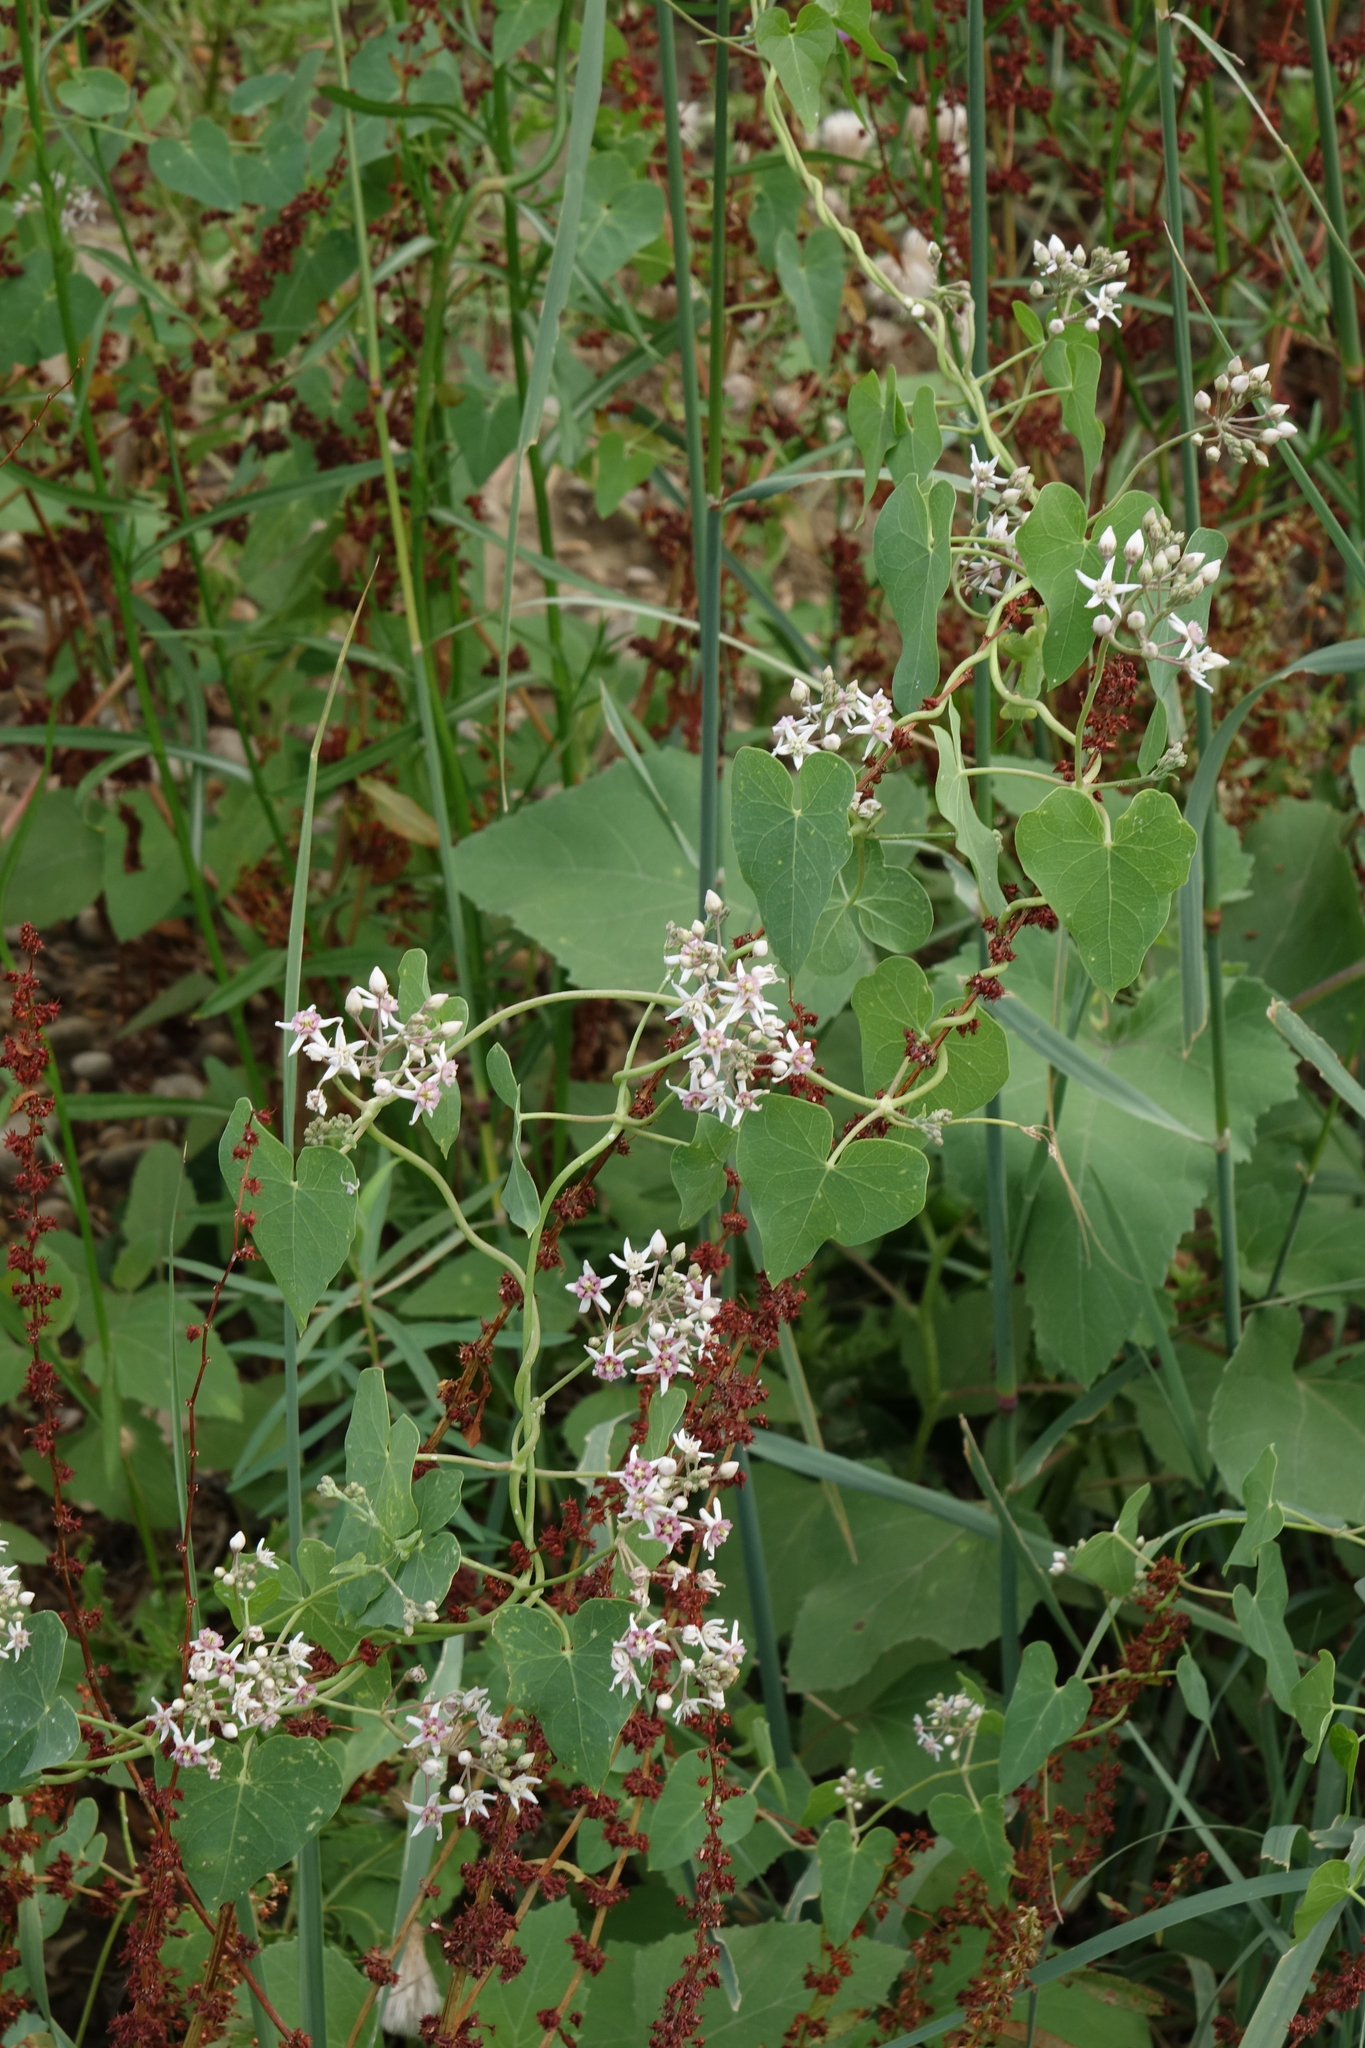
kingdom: Plantae
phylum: Tracheophyta
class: Magnoliopsida
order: Gentianales
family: Apocynaceae
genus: Cynanchum
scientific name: Cynanchum acutum
